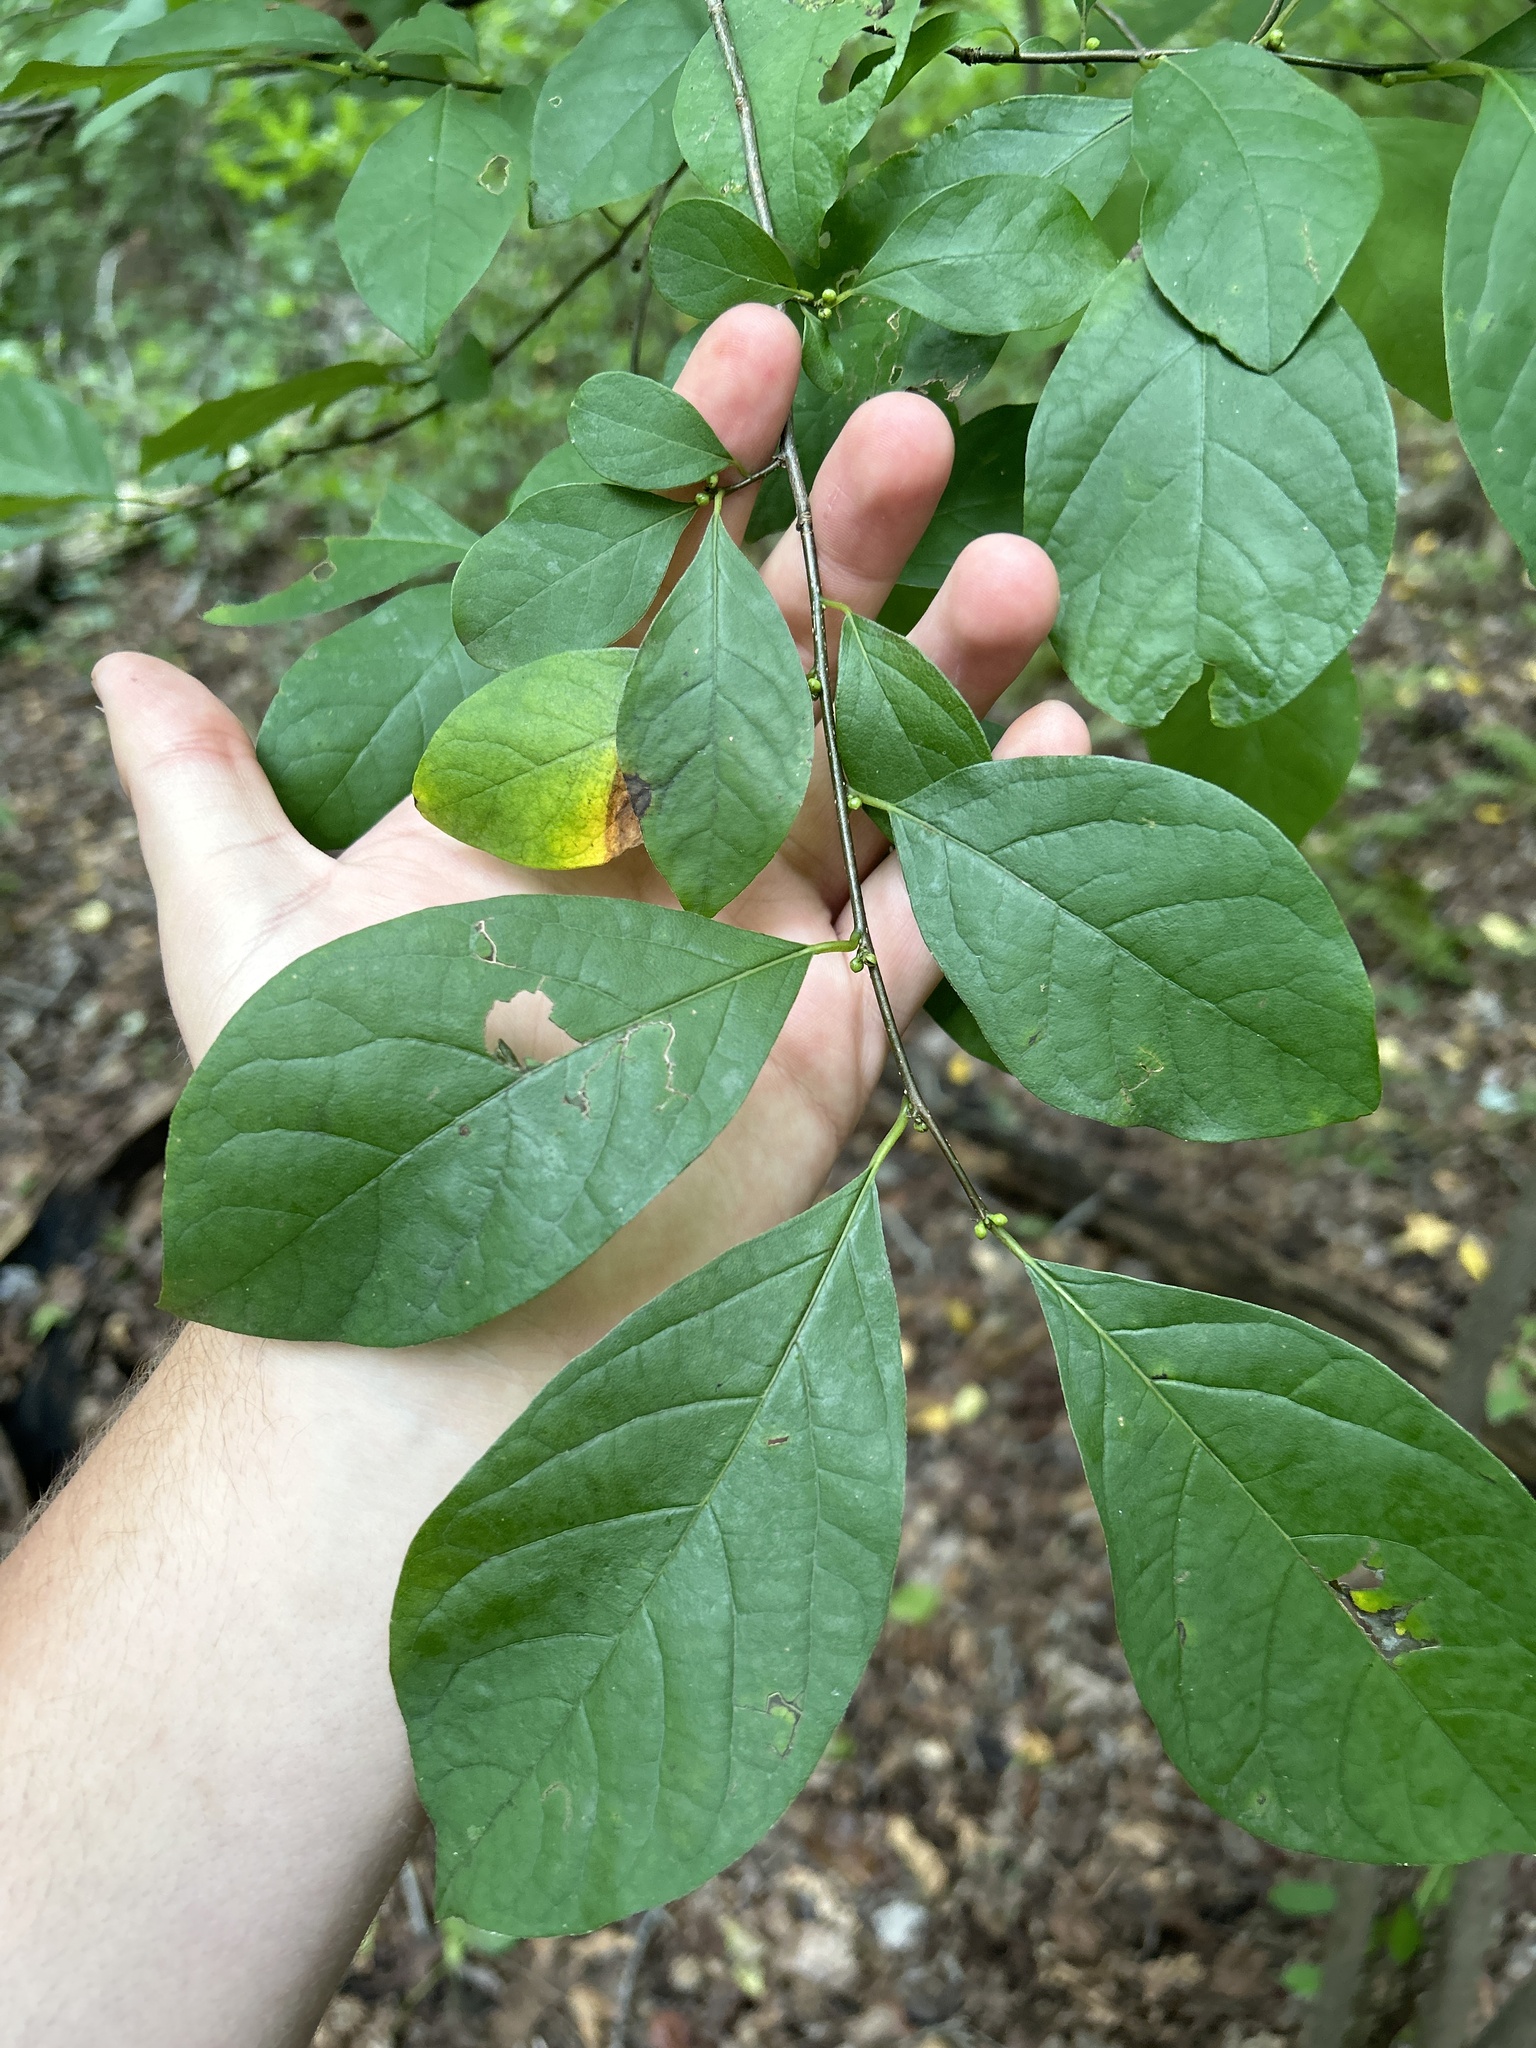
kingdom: Plantae
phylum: Tracheophyta
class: Magnoliopsida
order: Laurales
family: Lauraceae
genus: Lindera
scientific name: Lindera benzoin
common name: Spicebush
